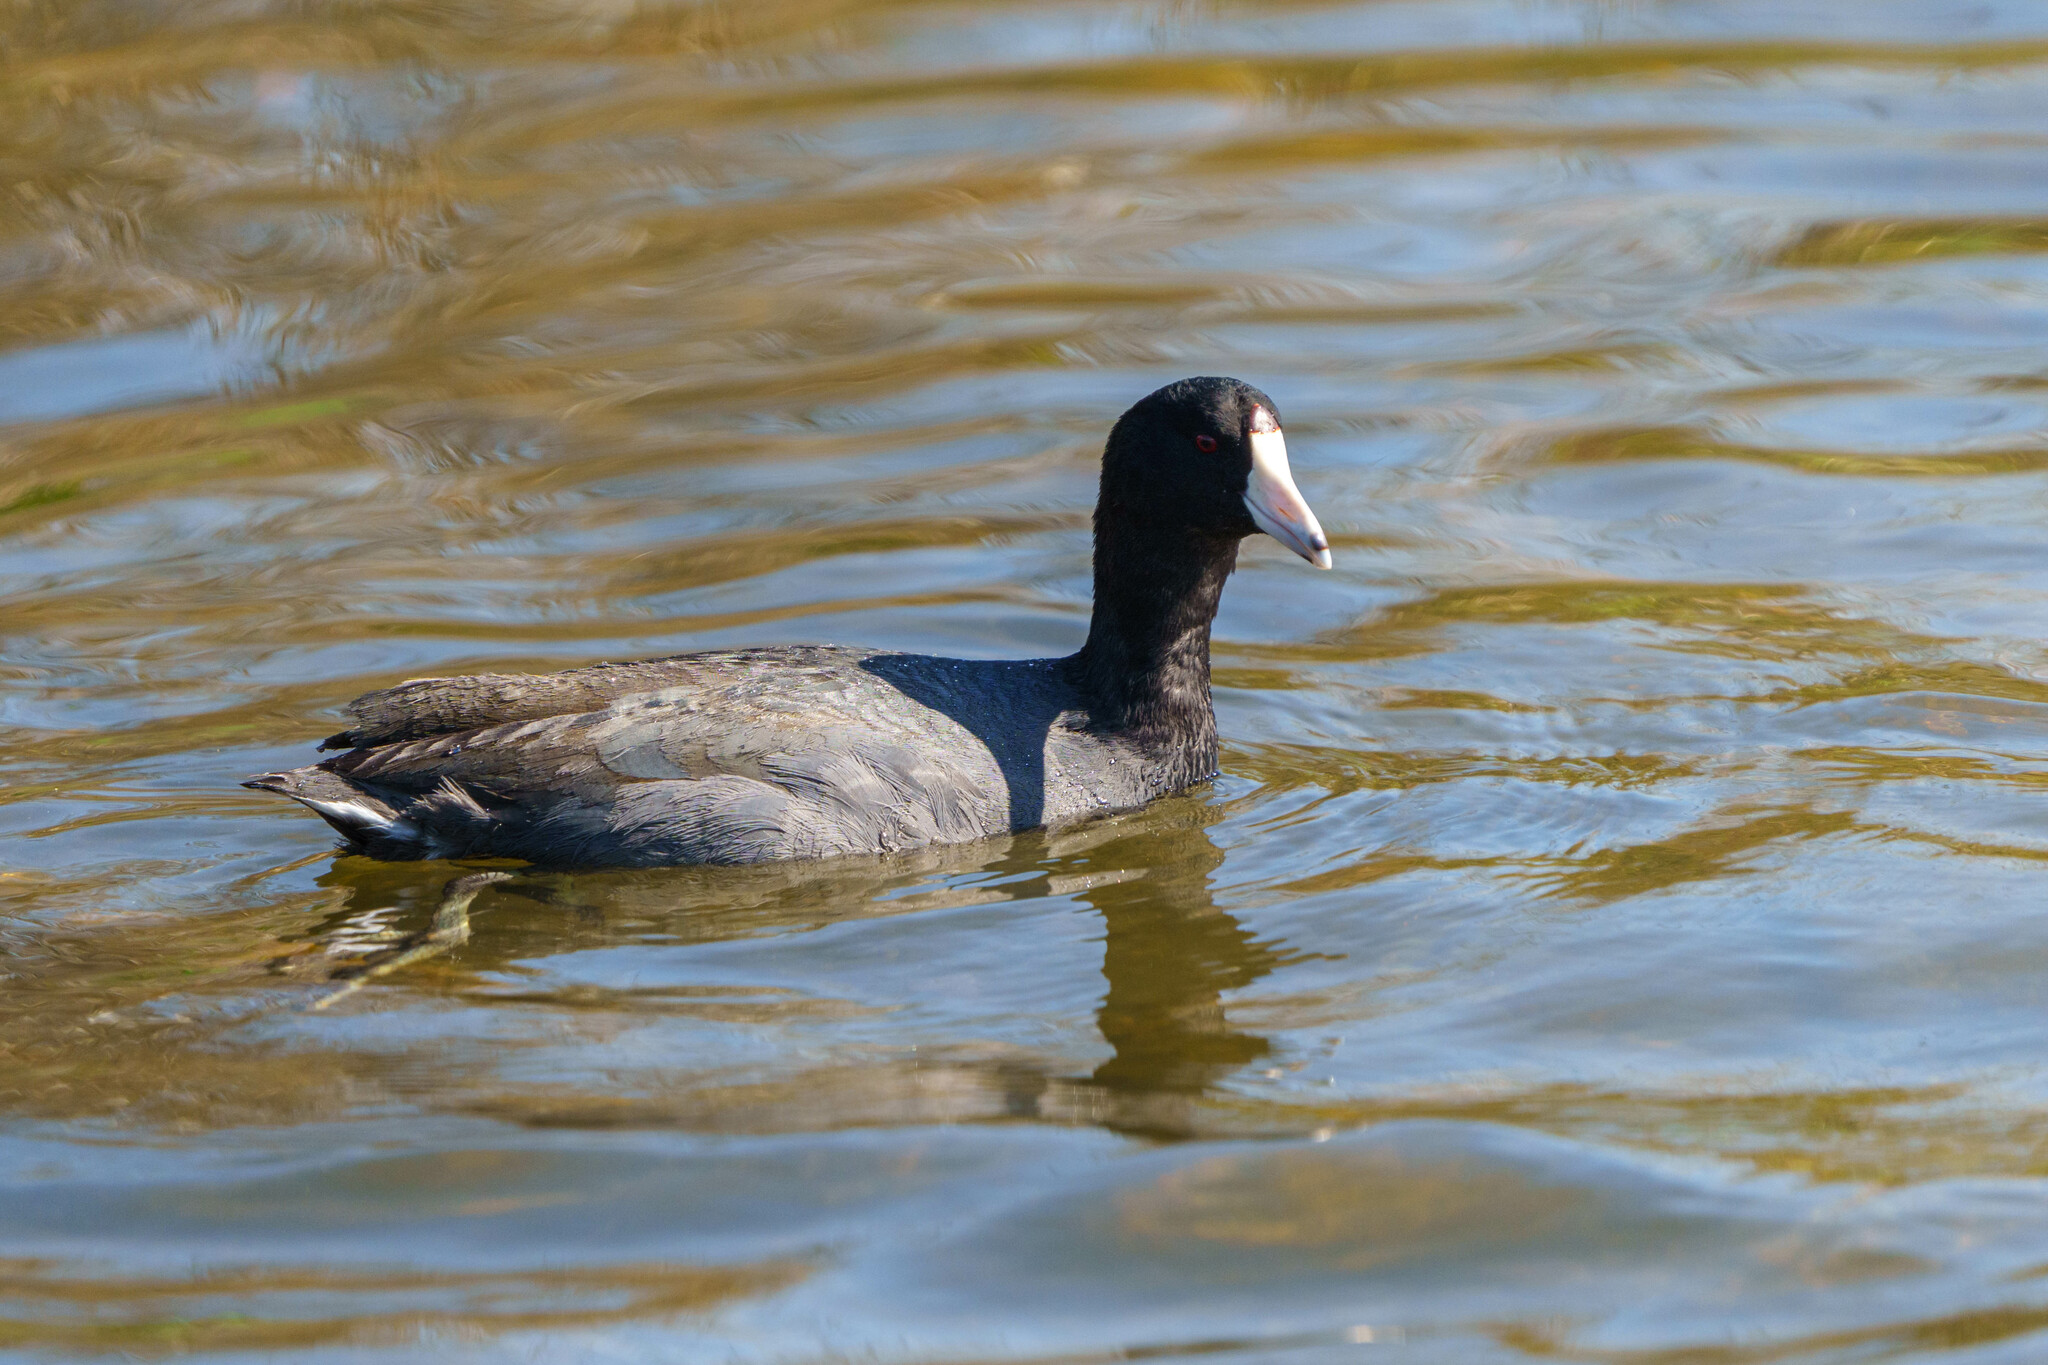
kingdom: Animalia
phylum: Chordata
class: Aves
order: Gruiformes
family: Rallidae
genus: Fulica
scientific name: Fulica americana
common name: American coot
